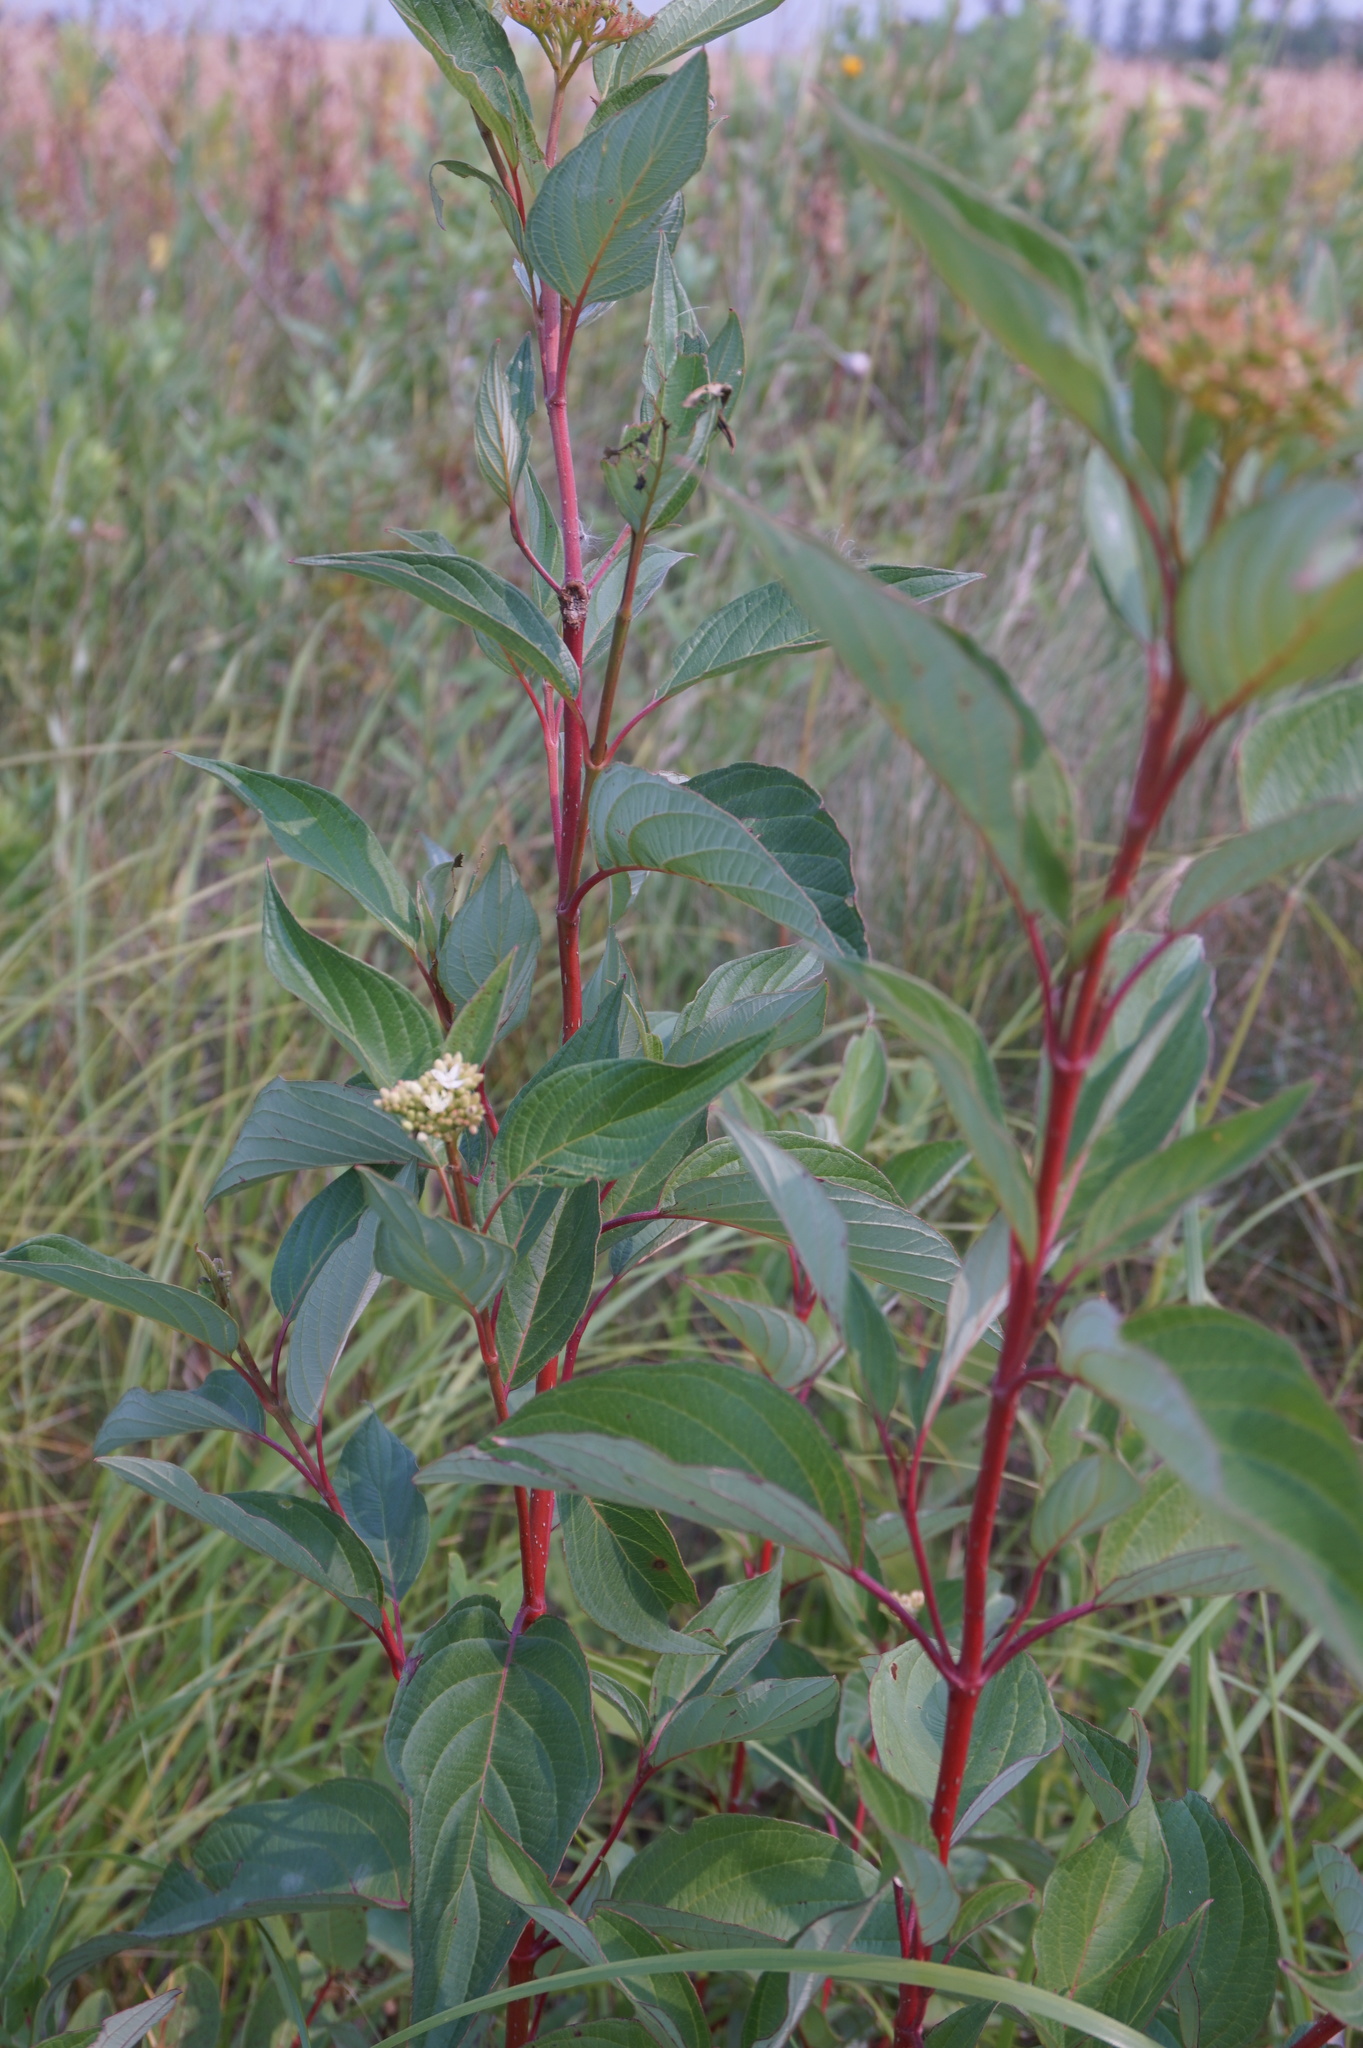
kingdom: Plantae
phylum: Tracheophyta
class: Magnoliopsida
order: Cornales
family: Cornaceae
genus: Cornus
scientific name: Cornus sericea
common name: Red-osier dogwood
